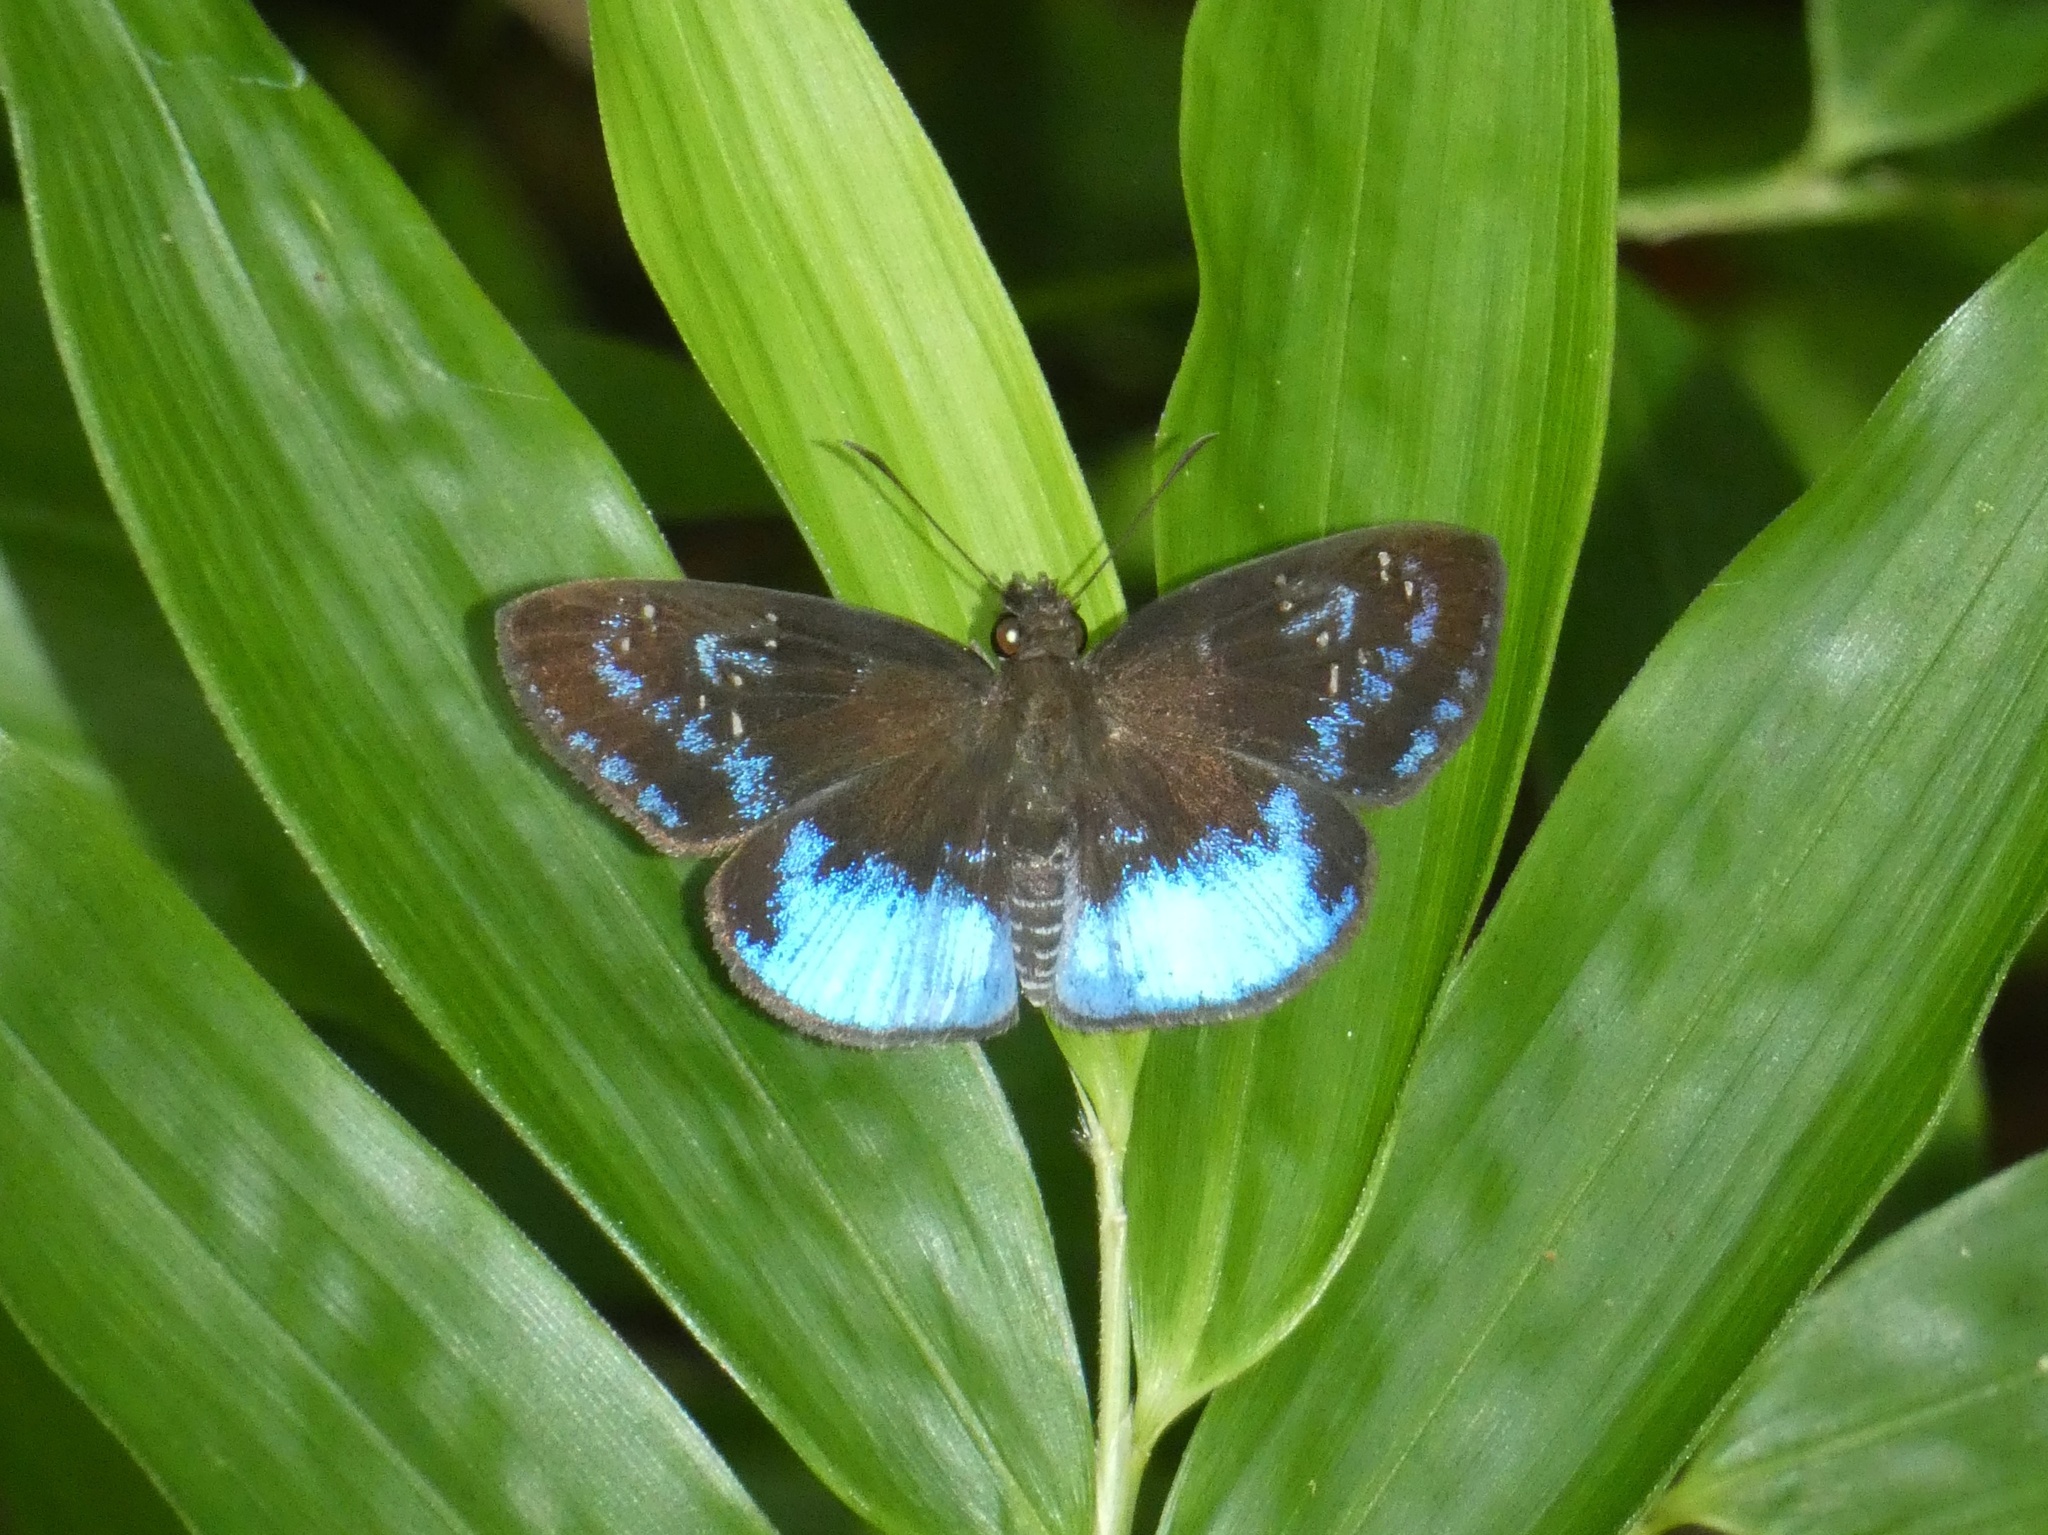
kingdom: Animalia
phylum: Arthropoda
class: Insecta
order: Lepidoptera
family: Hesperiidae
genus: Pythonides
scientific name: Pythonides proxenus
